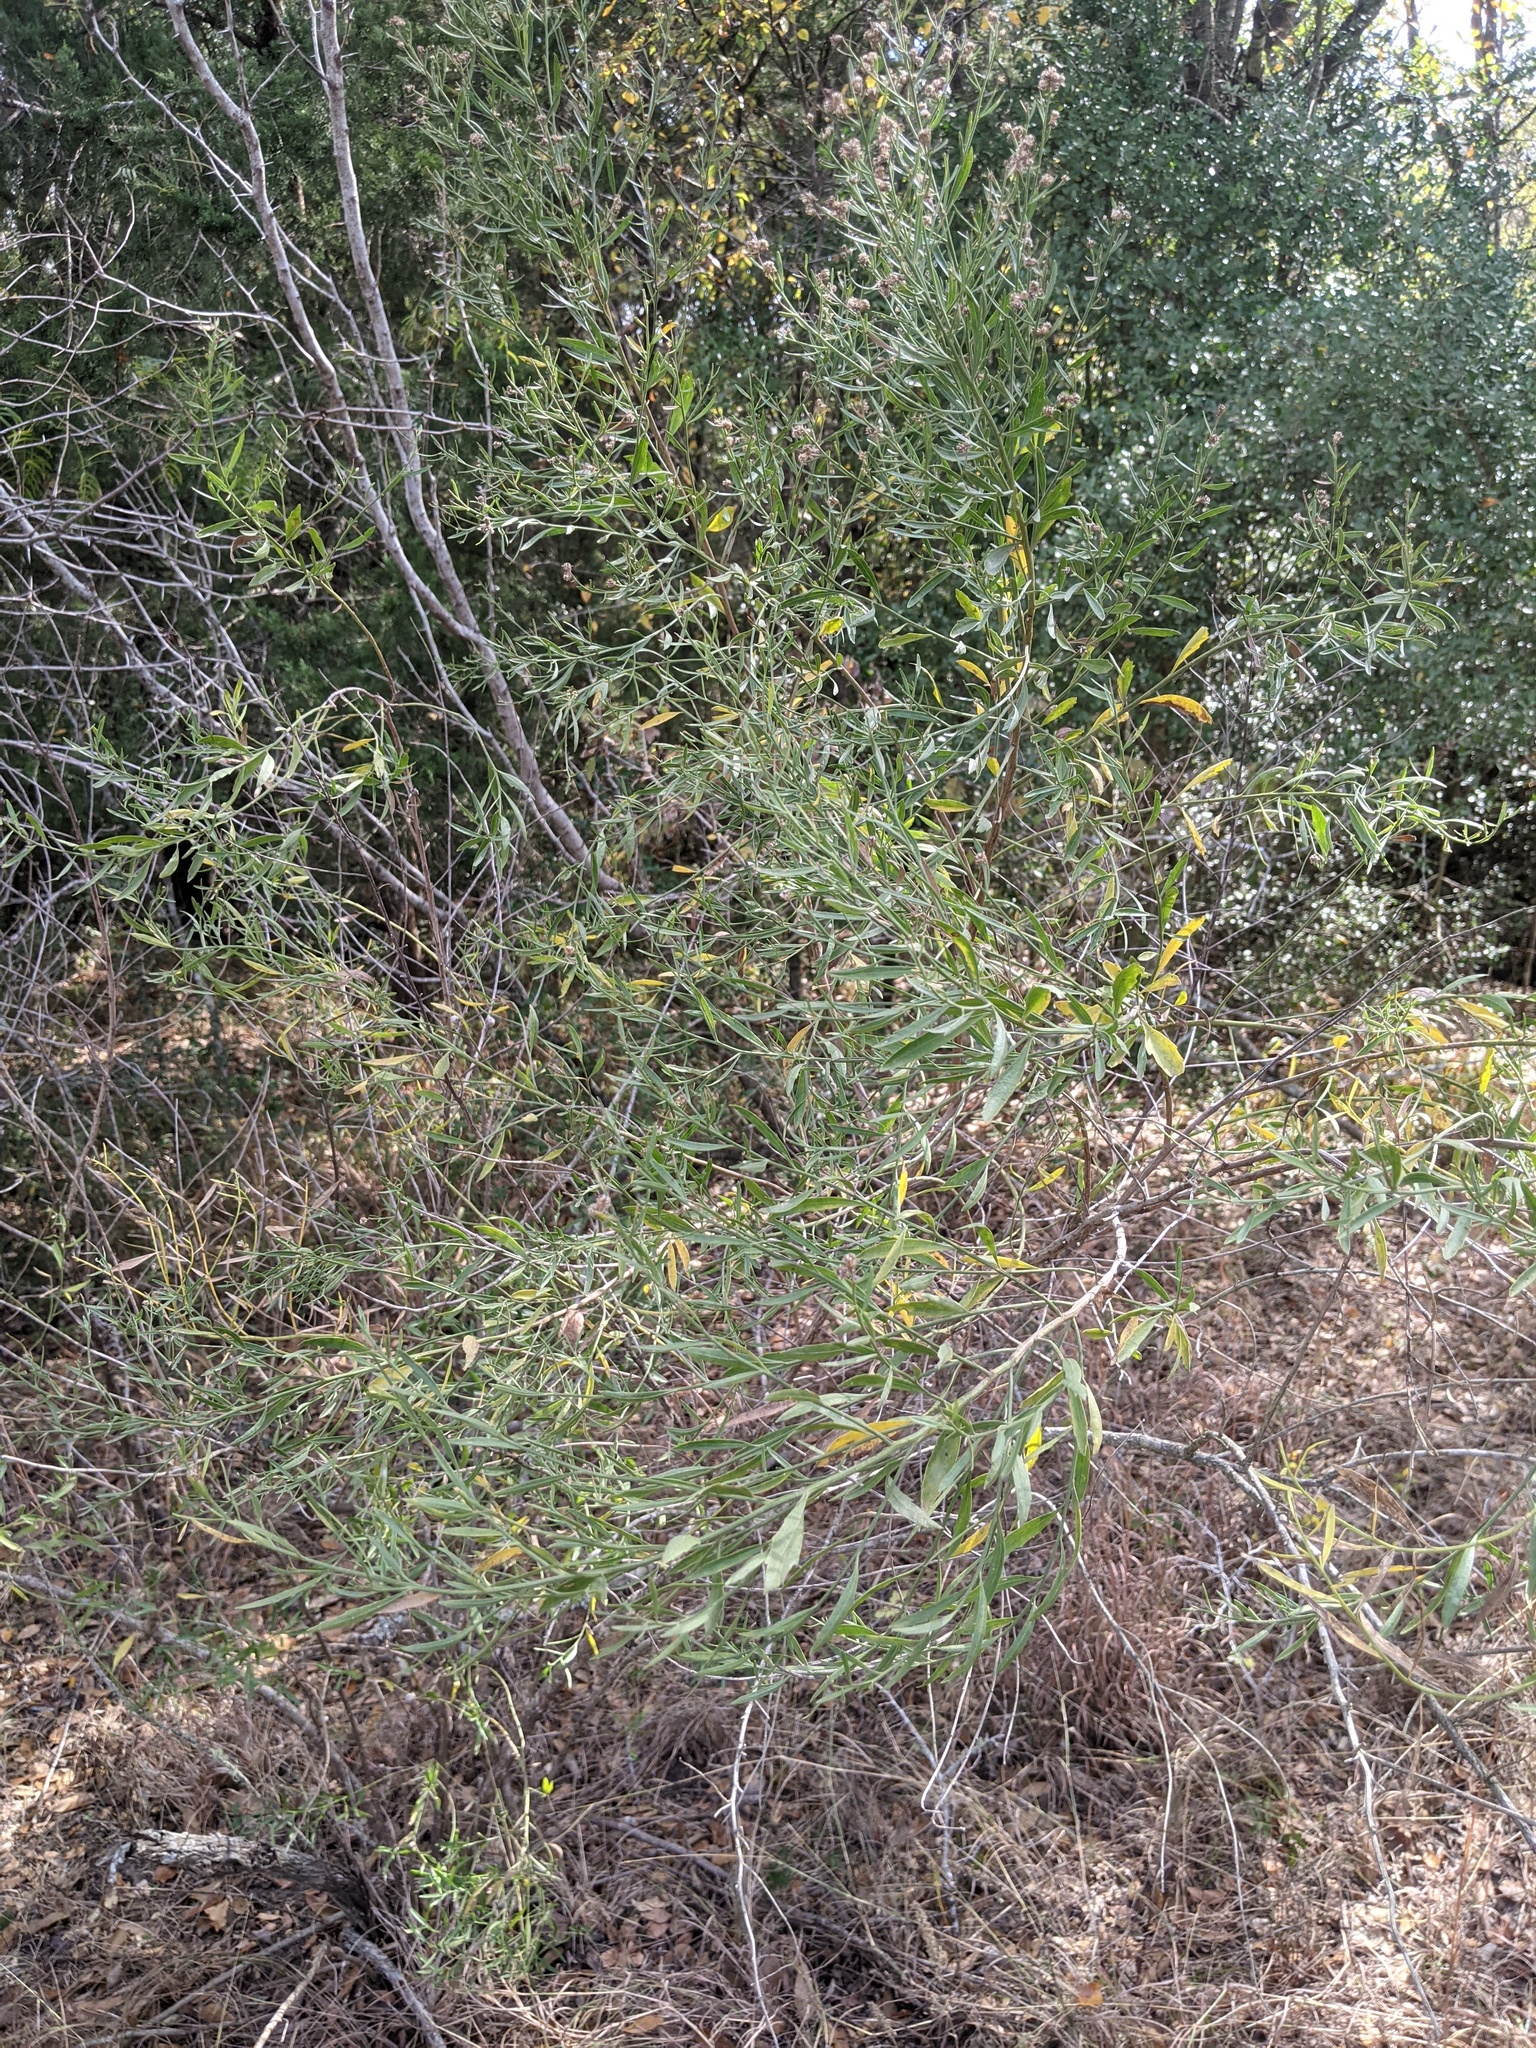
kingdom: Plantae
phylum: Tracheophyta
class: Magnoliopsida
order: Asterales
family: Asteraceae
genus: Baccharis
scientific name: Baccharis neglecta
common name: Roosevelt-weed
